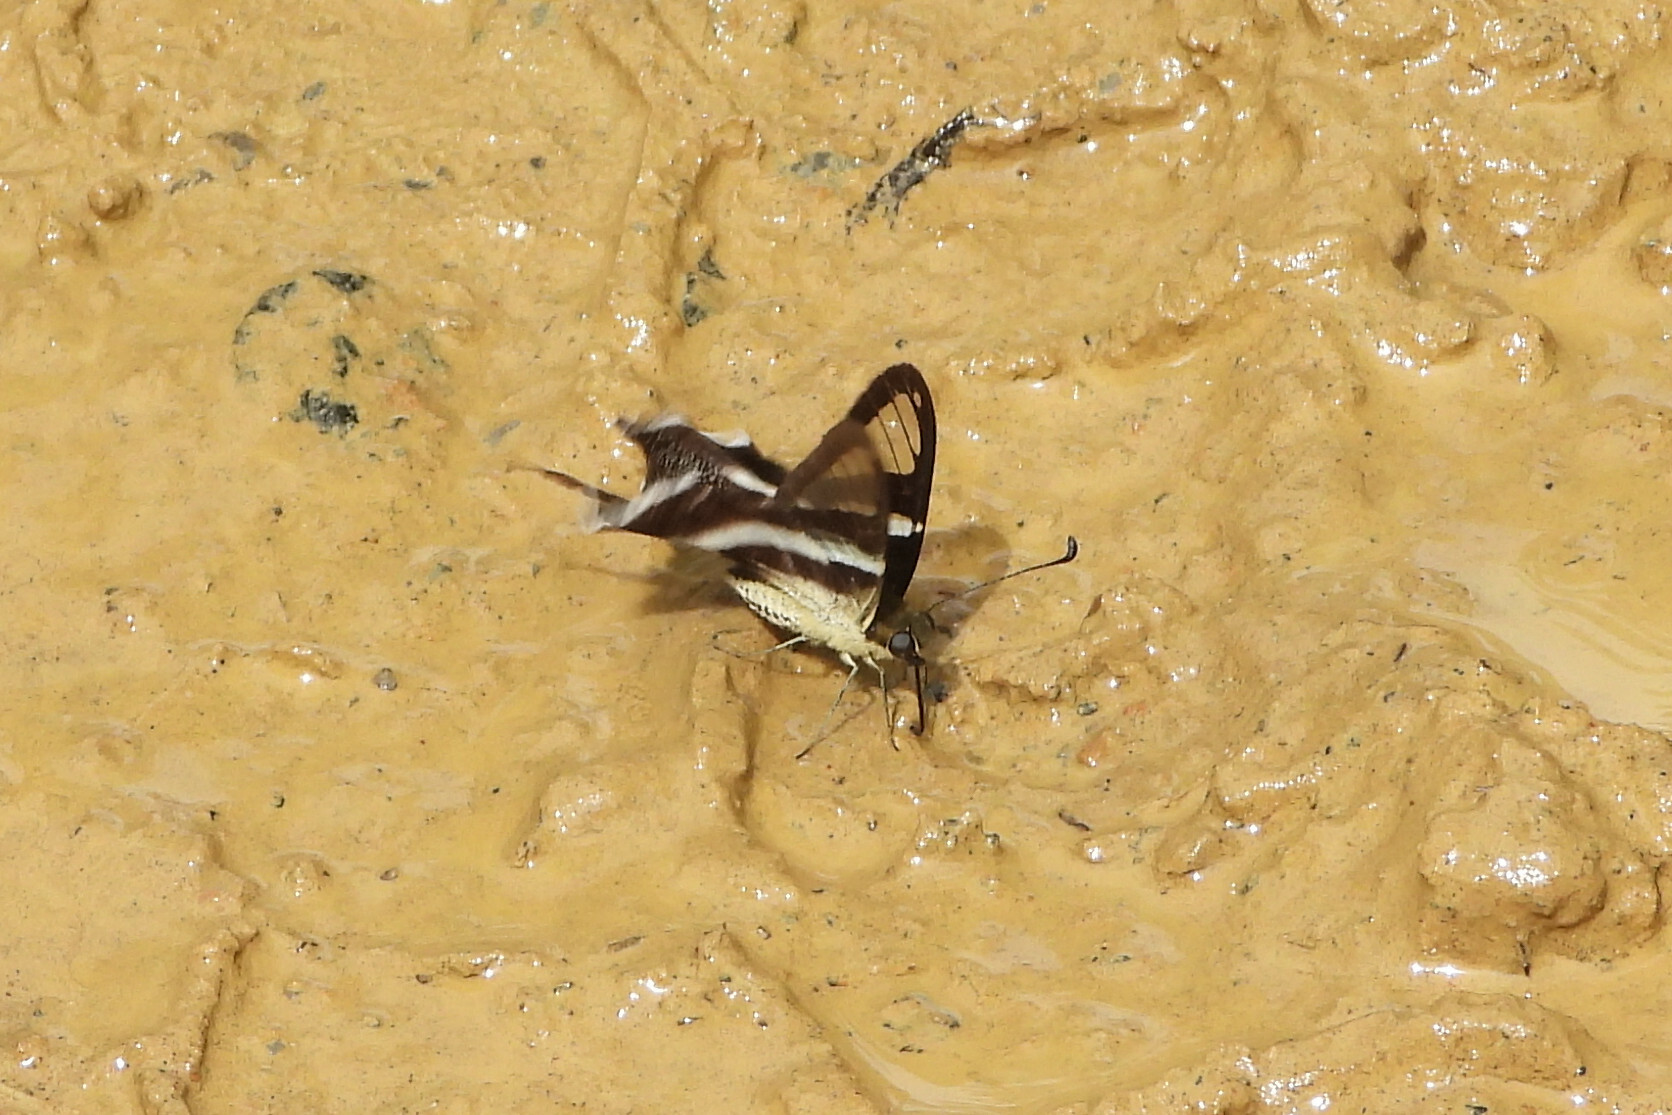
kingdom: Animalia
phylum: Arthropoda
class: Insecta
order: Lepidoptera
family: Papilionidae
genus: Lamproptera
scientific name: Lamproptera curius
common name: White dragontail
